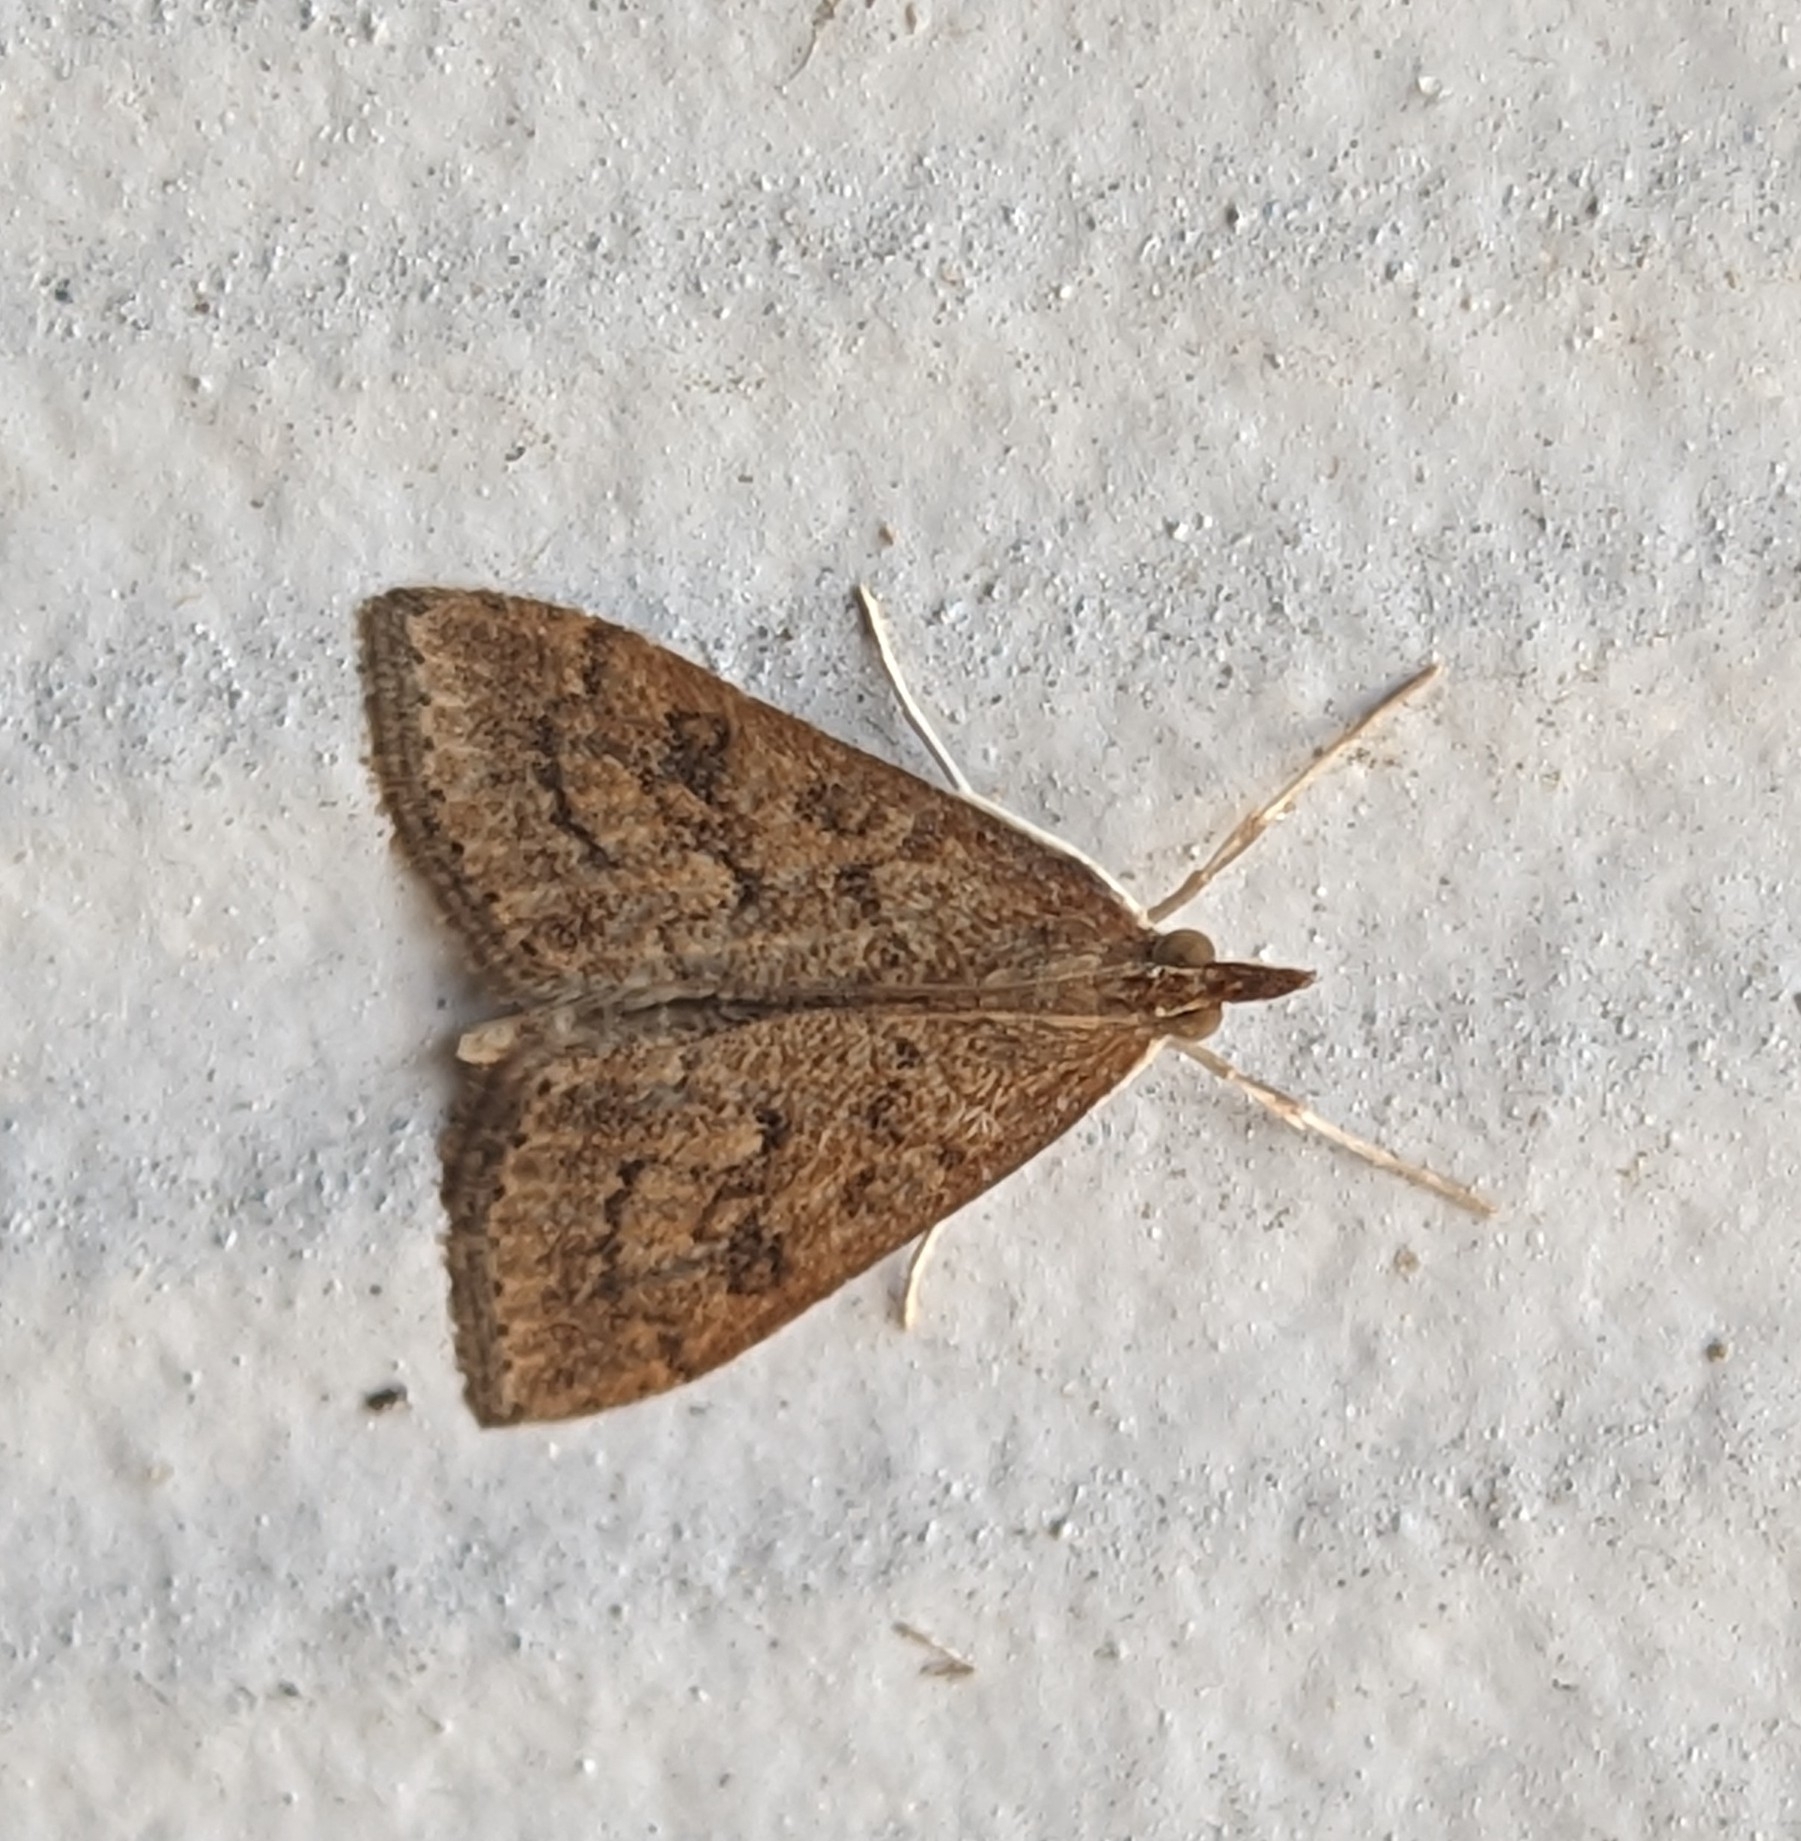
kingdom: Animalia
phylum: Arthropoda
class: Insecta
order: Lepidoptera
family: Crambidae
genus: Udea
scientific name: Udea rubigalis
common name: Celery leaftier moth
